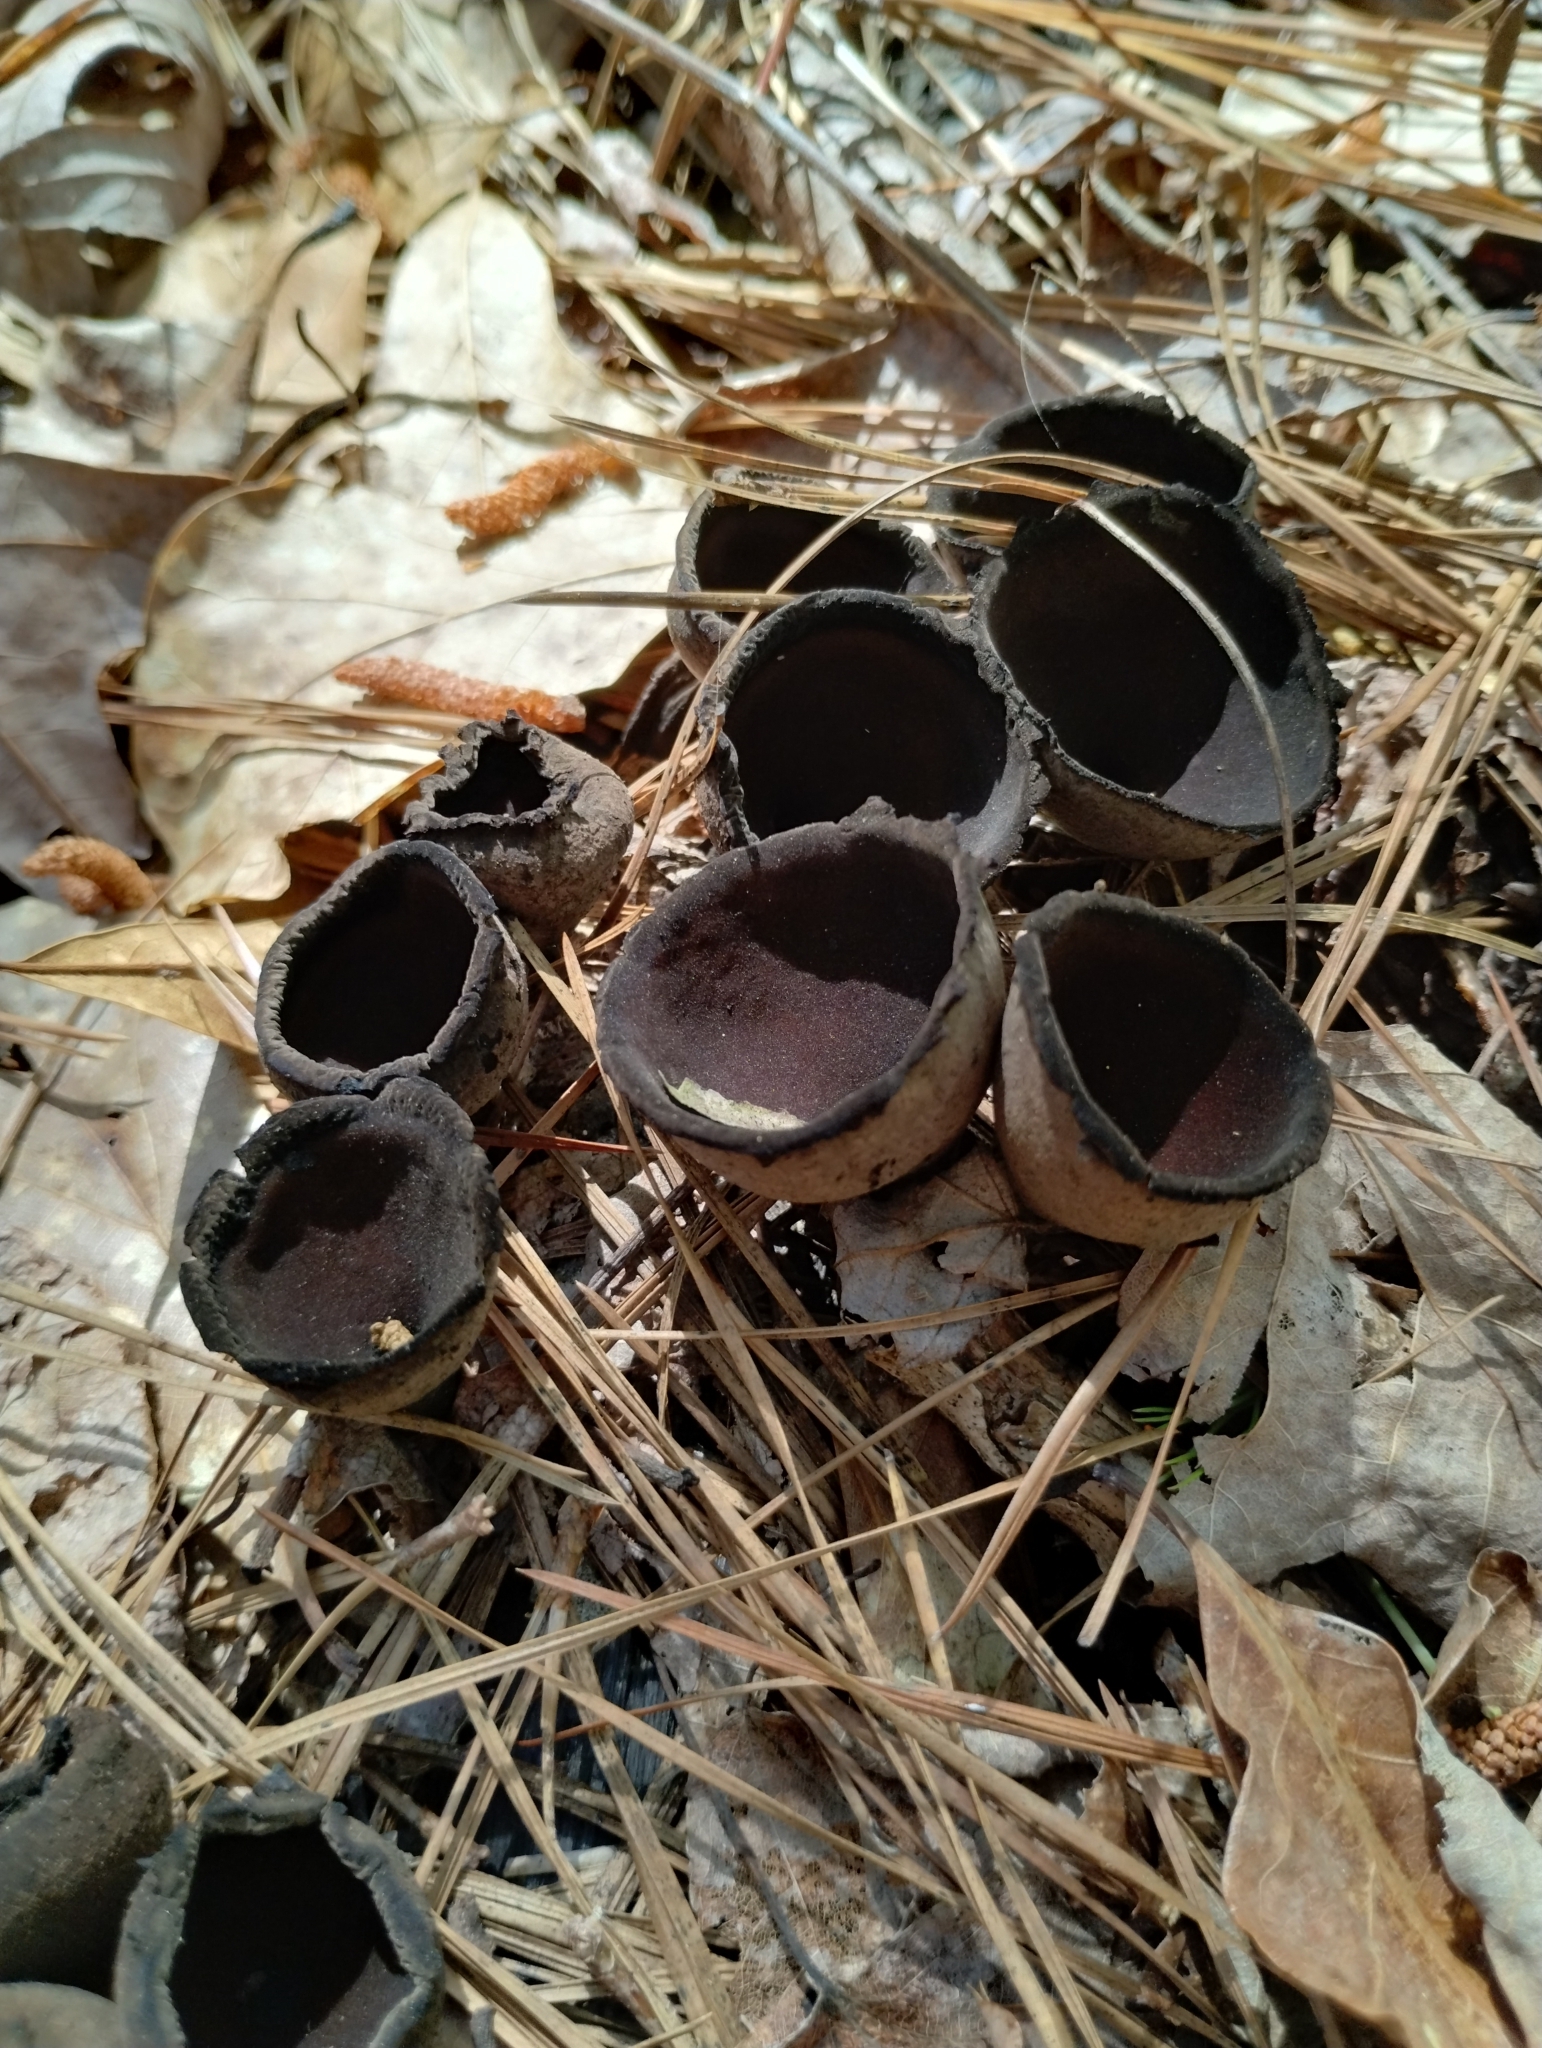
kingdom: Fungi
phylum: Ascomycota
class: Pezizomycetes
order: Pezizales
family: Sarcosomataceae
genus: Urnula
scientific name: Urnula craterium
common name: Devil's urn
